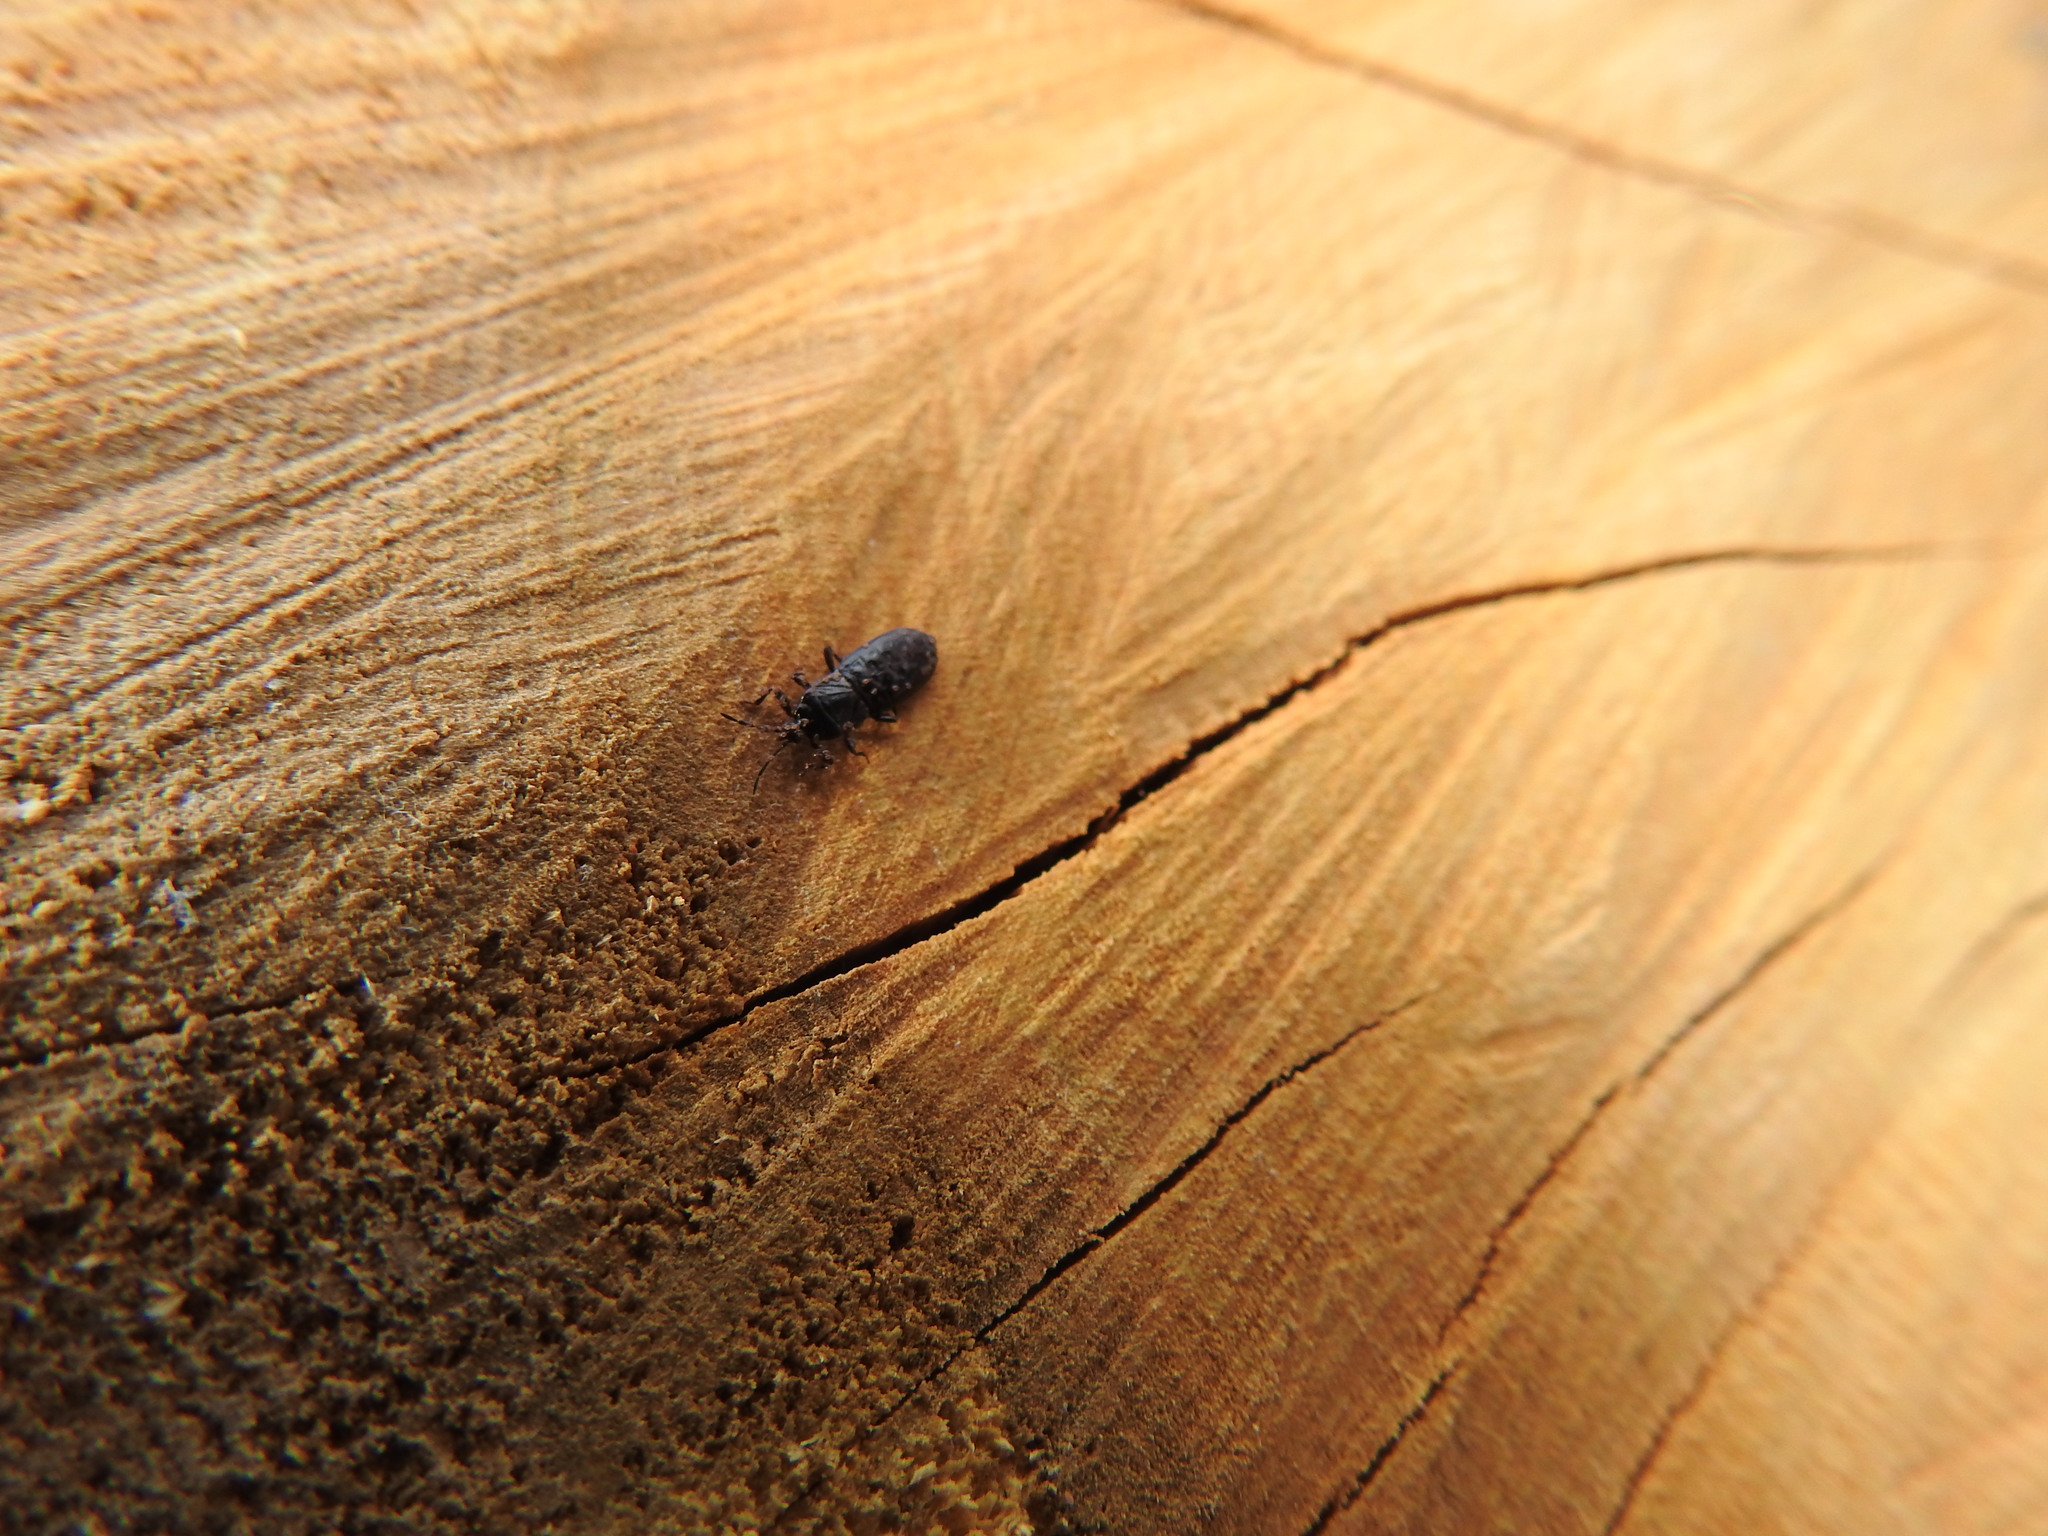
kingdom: Animalia
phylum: Arthropoda
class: Insecta
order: Hemiptera
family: Aradidae
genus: Isodermus
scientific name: Isodermus gayi
